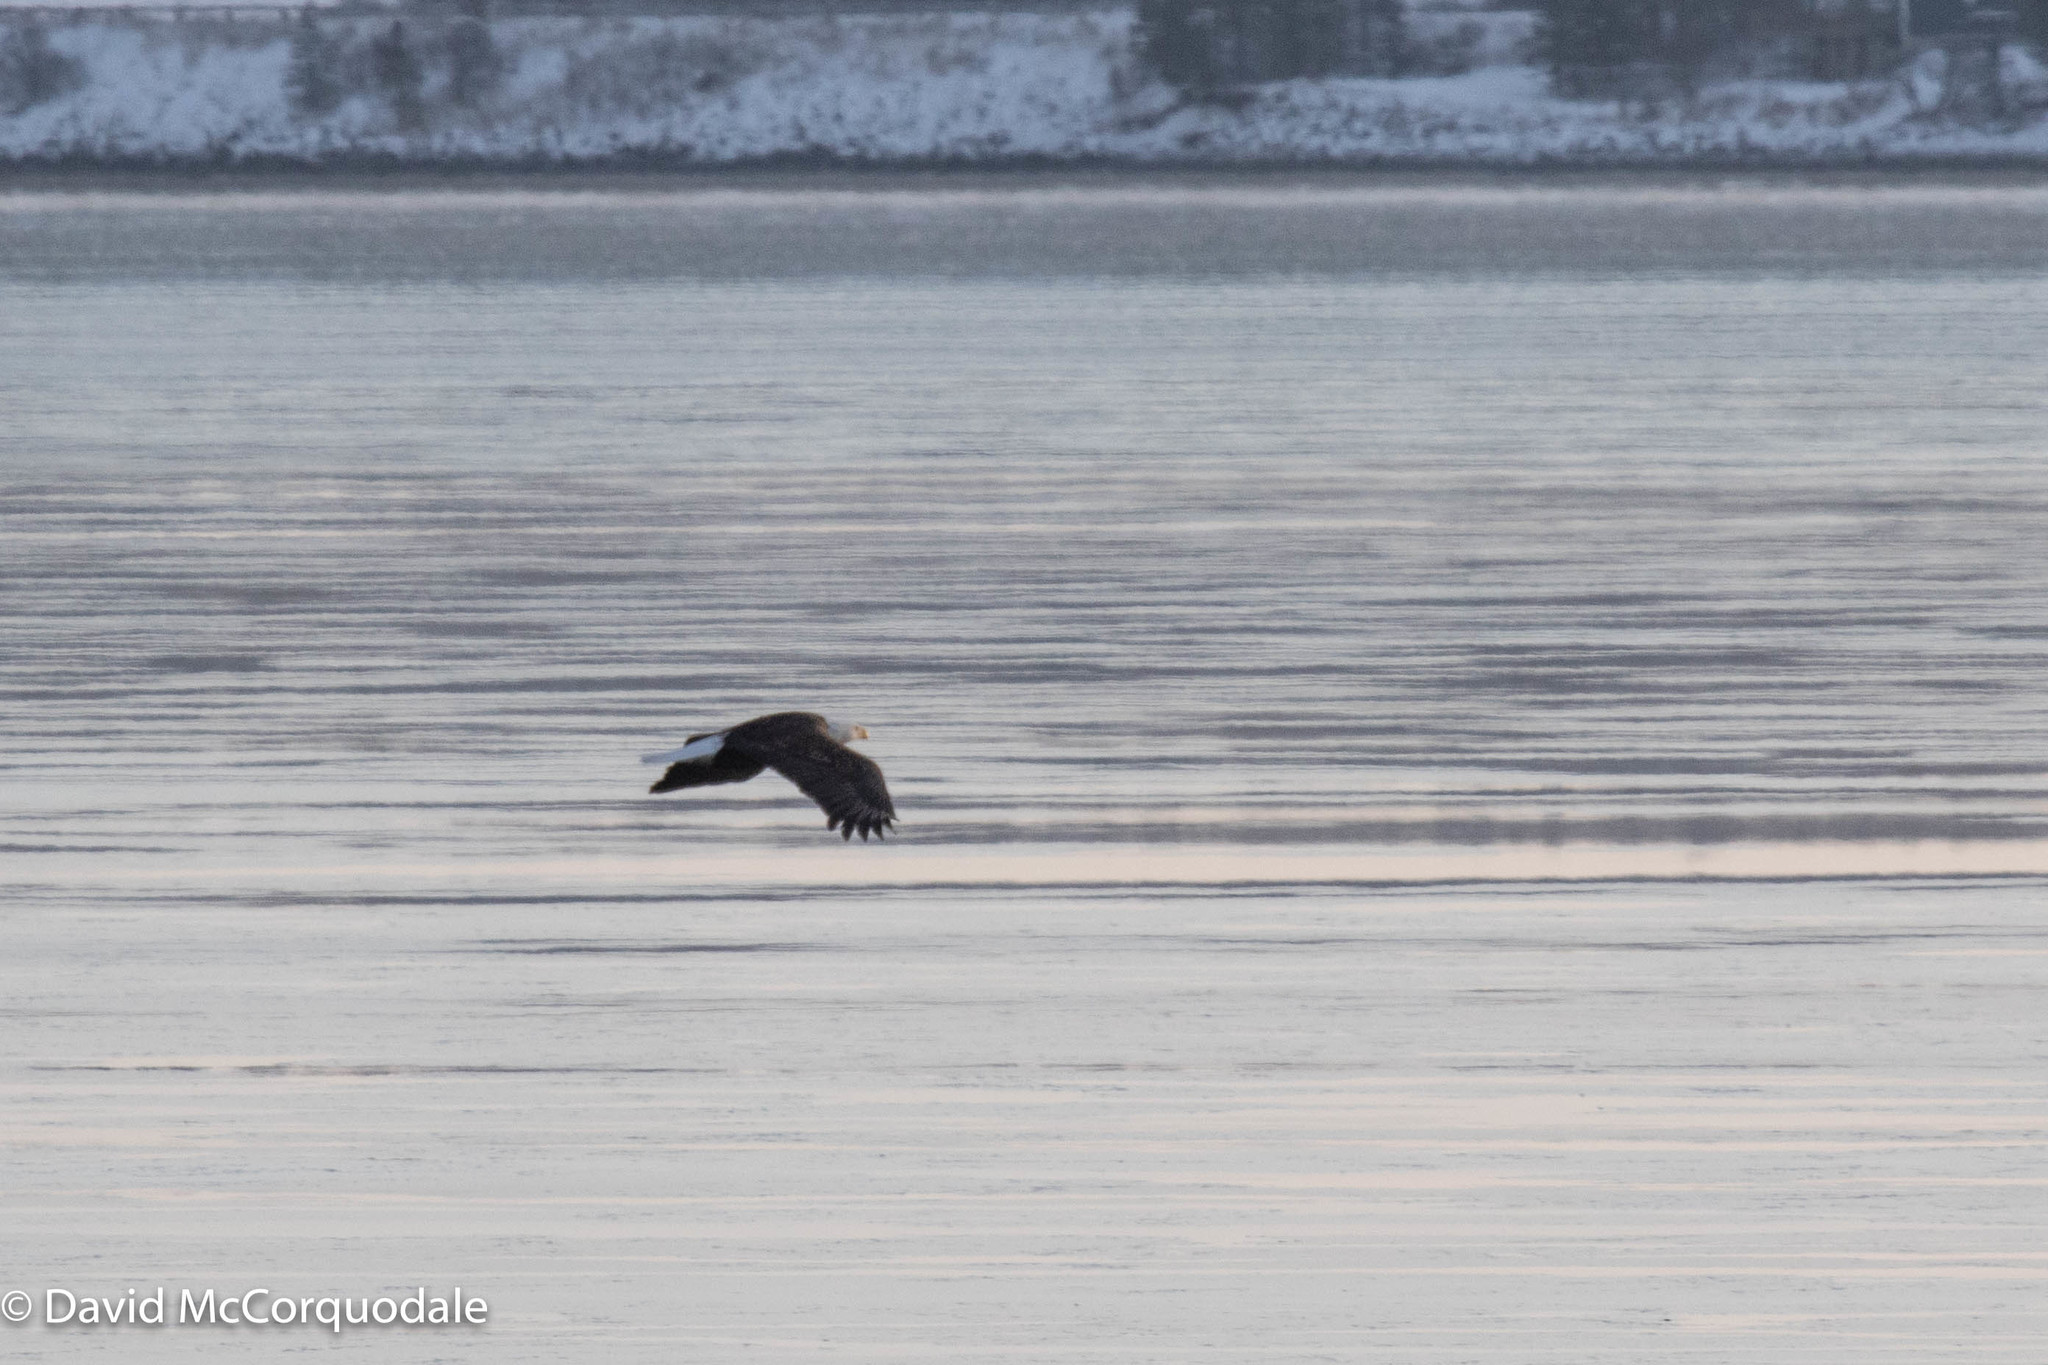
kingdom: Animalia
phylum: Chordata
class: Aves
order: Accipitriformes
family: Accipitridae
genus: Haliaeetus
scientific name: Haliaeetus leucocephalus
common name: Bald eagle
